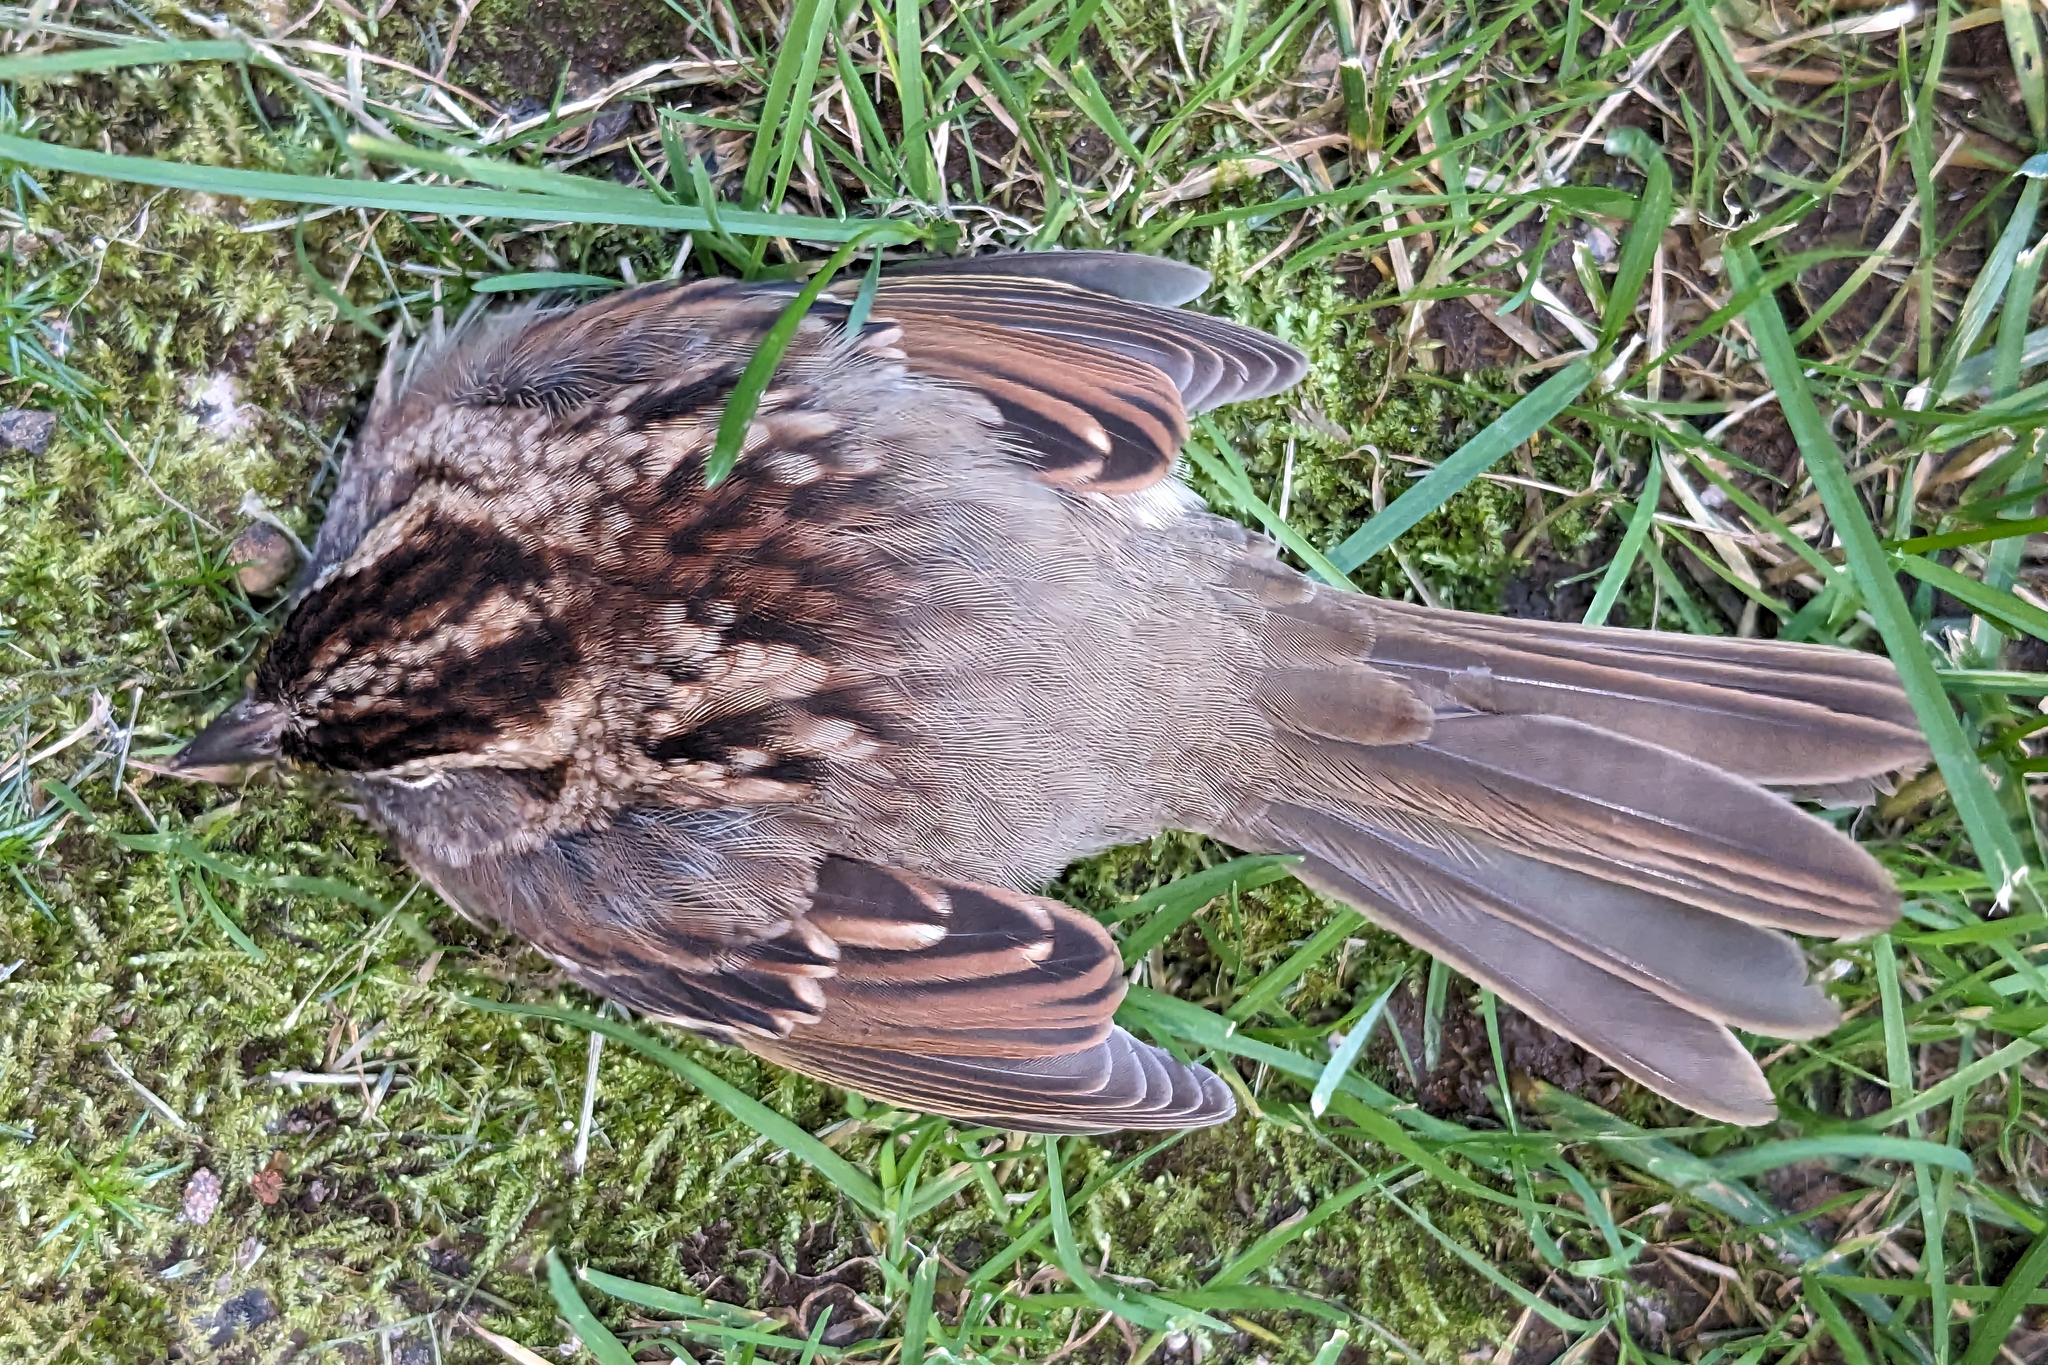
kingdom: Animalia
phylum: Chordata
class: Aves
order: Passeriformes
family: Passerellidae
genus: Zonotrichia
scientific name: Zonotrichia albicollis
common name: White-throated sparrow
